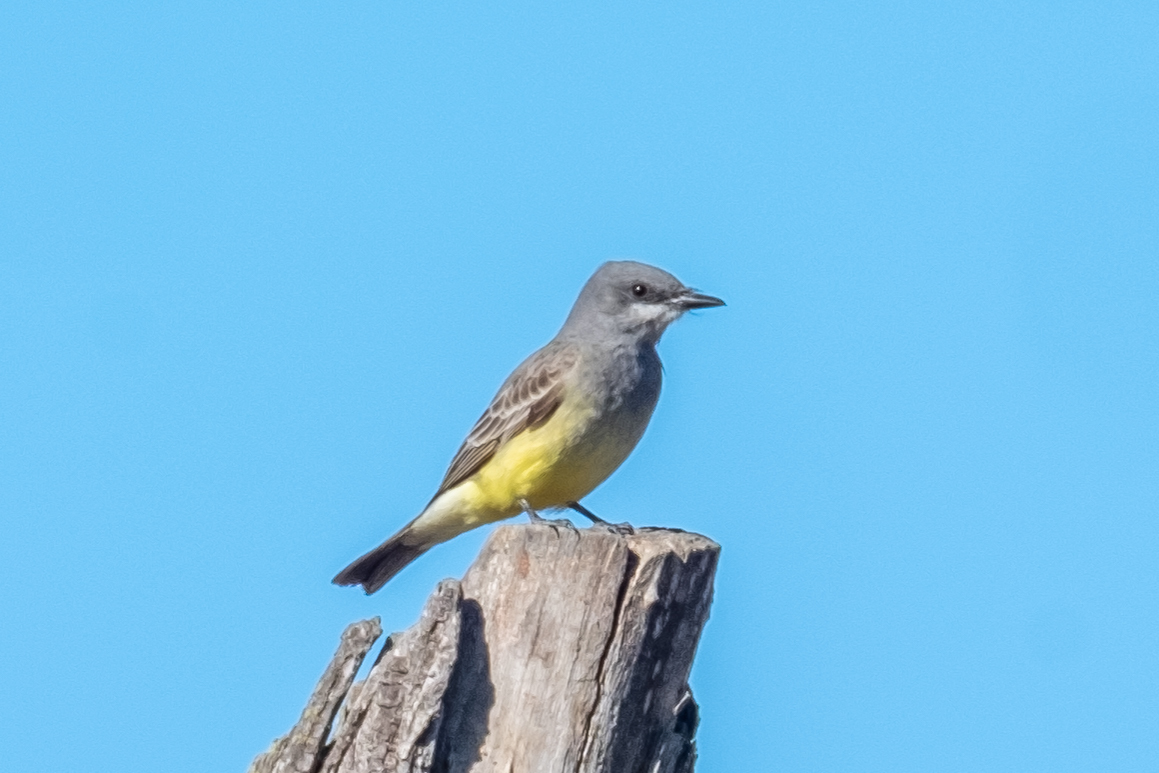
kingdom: Animalia
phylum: Chordata
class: Aves
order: Passeriformes
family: Tyrannidae
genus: Tyrannus
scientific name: Tyrannus vociferans
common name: Cassin's kingbird
